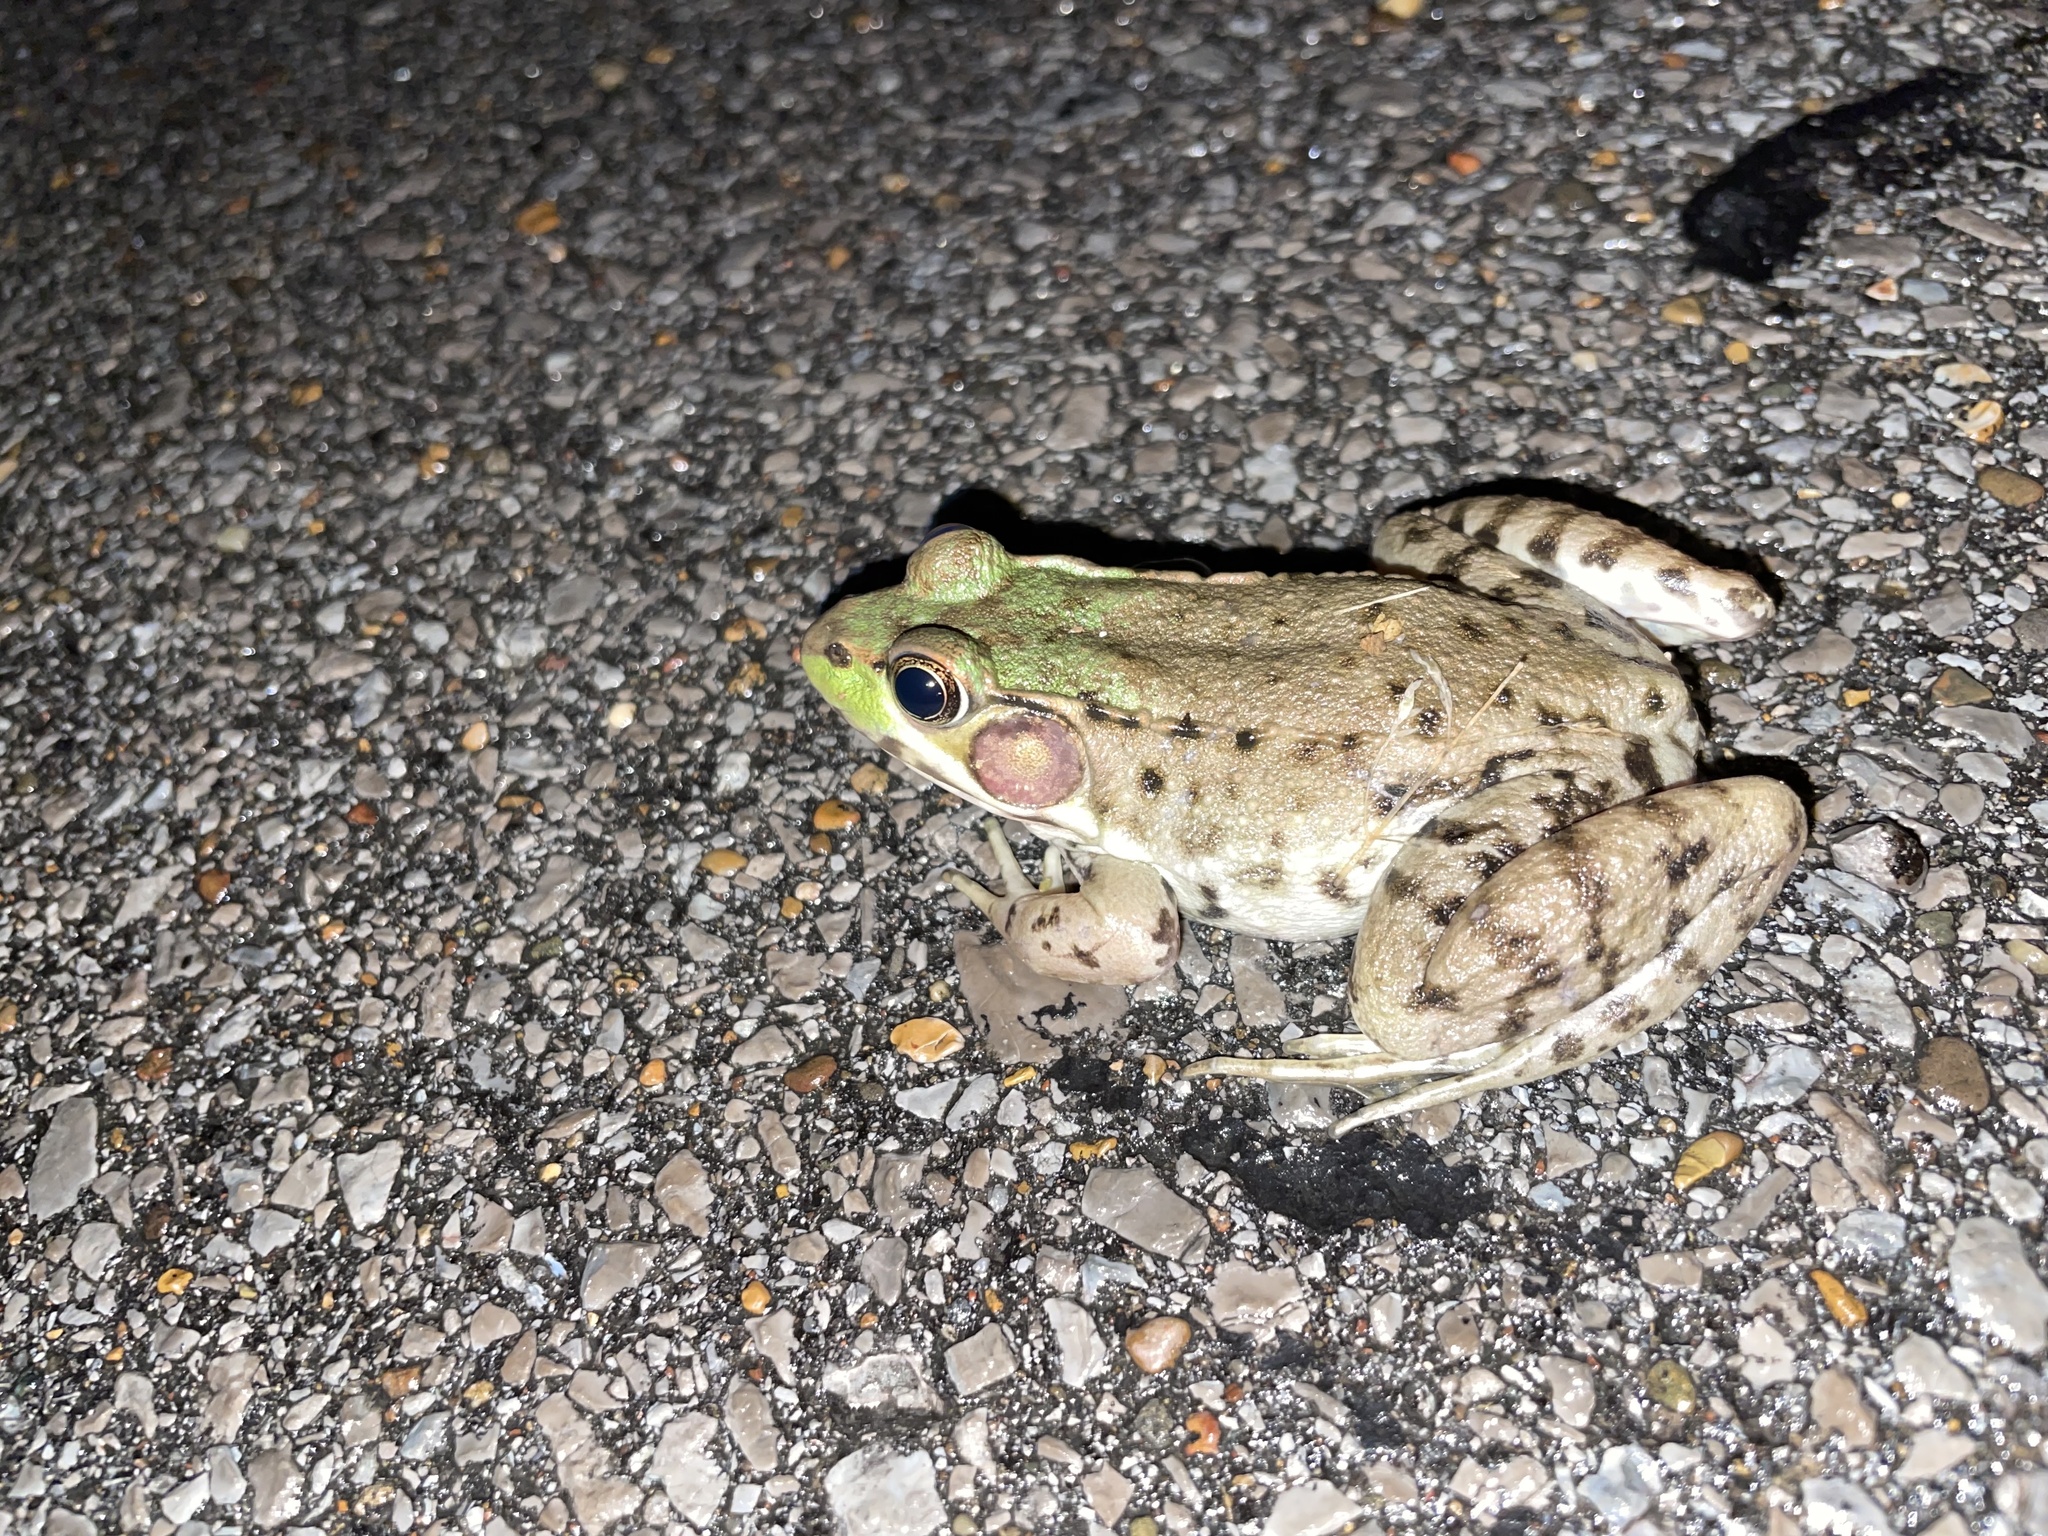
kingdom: Animalia
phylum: Chordata
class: Amphibia
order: Anura
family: Ranidae
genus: Lithobates
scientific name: Lithobates clamitans
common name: Green frog
